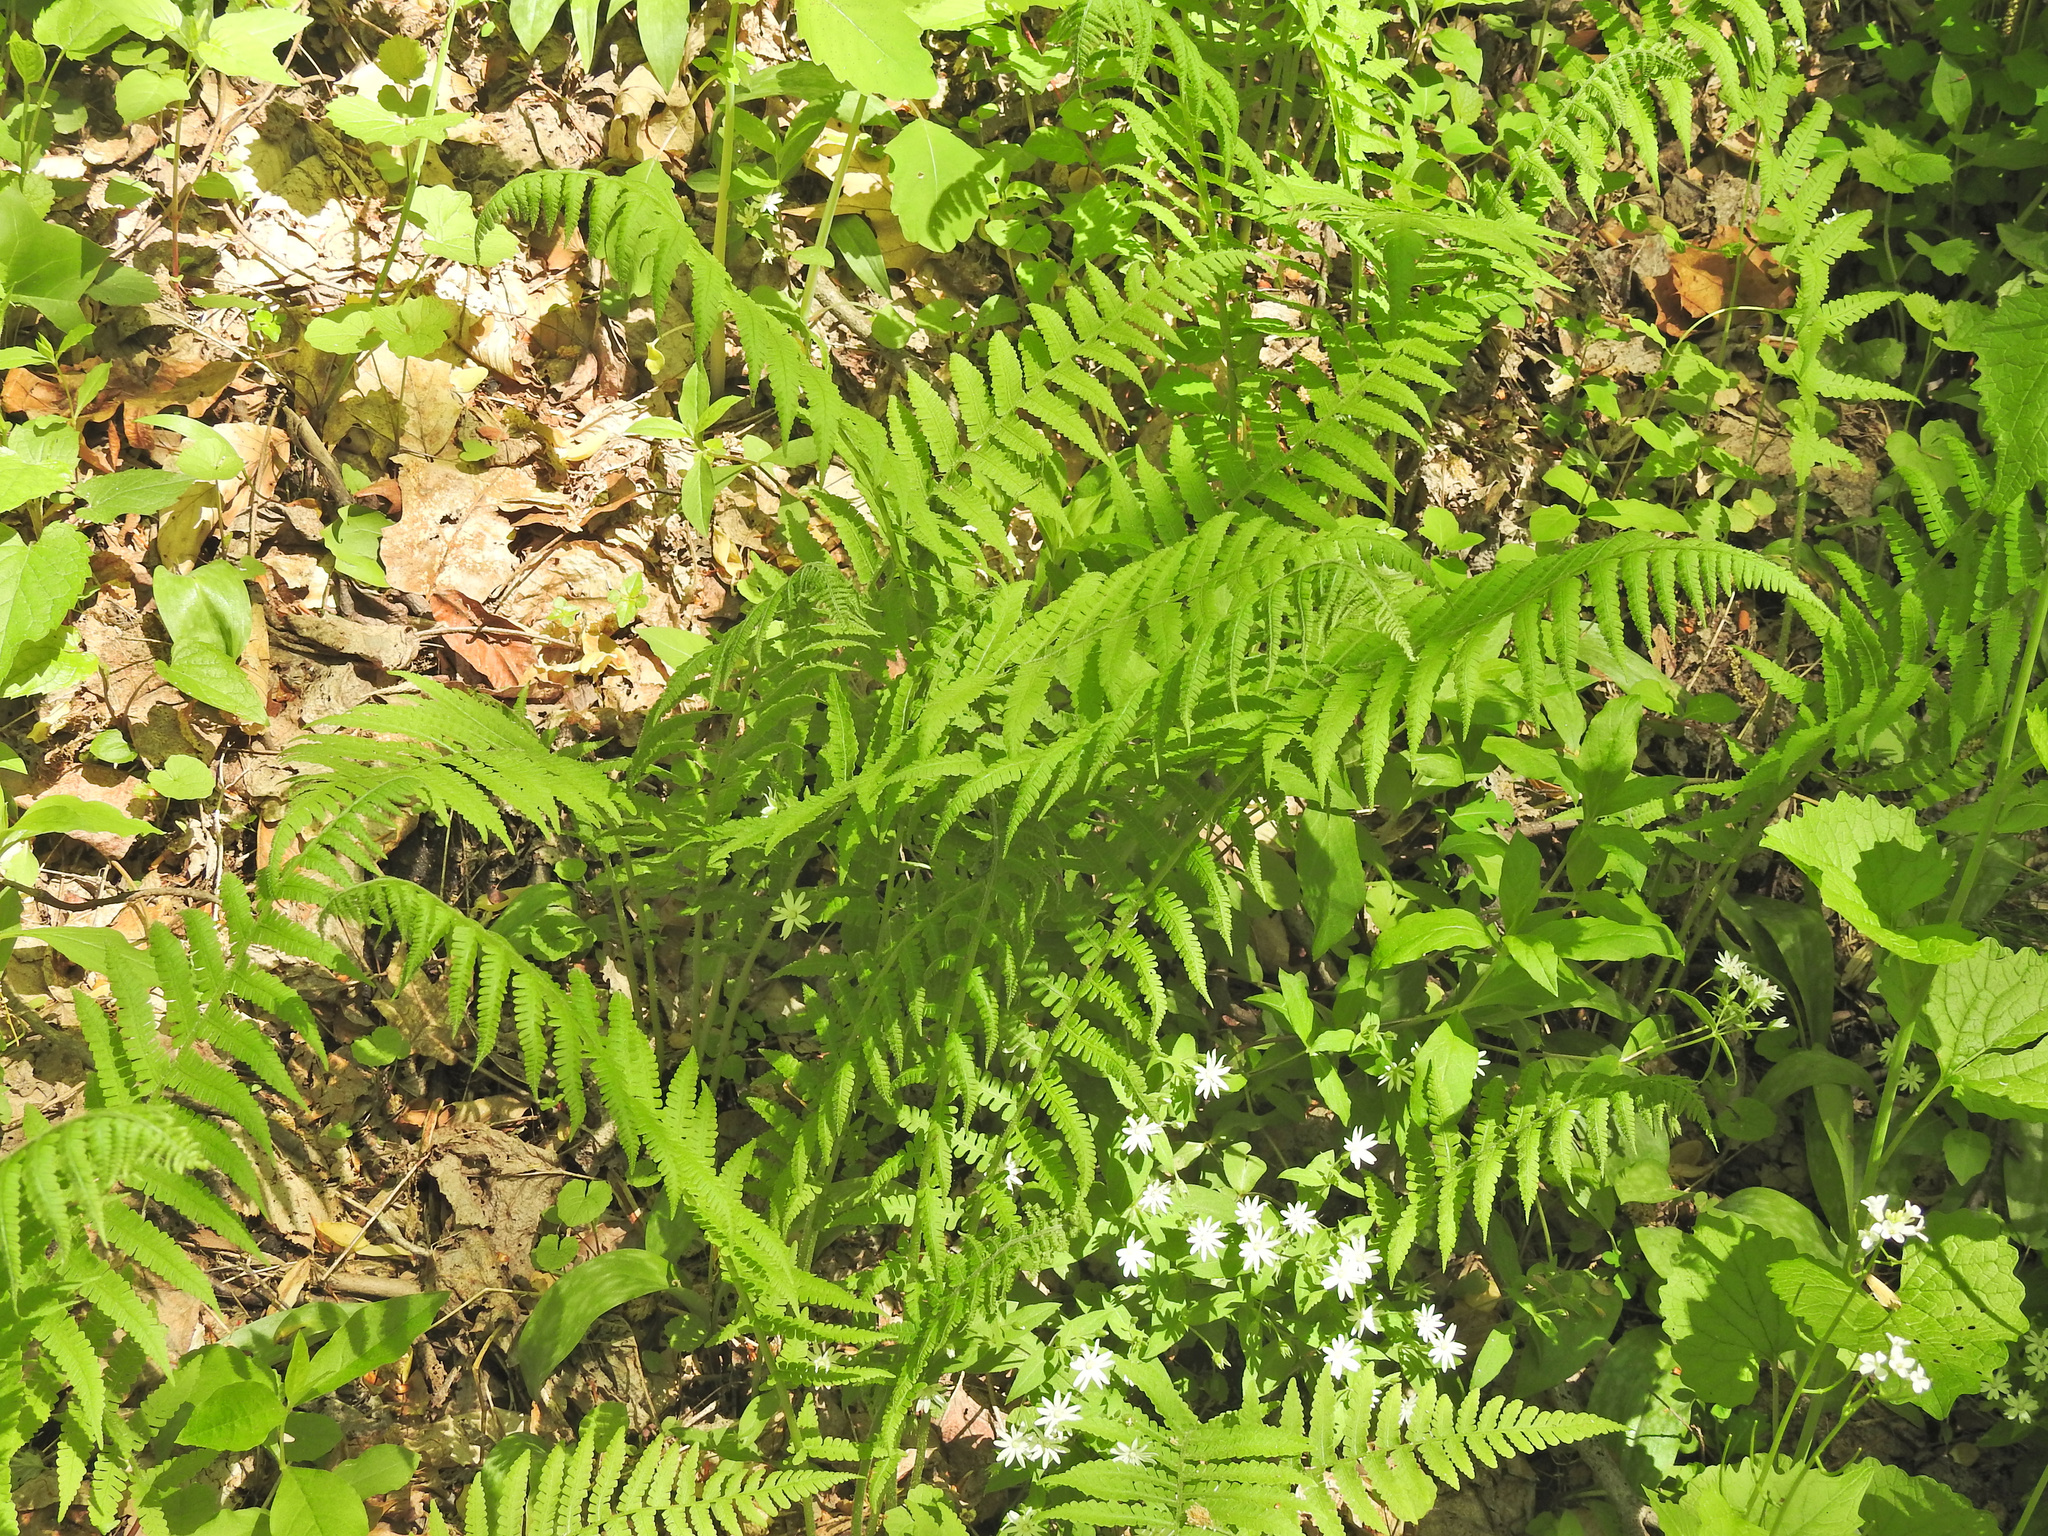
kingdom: Plantae
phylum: Tracheophyta
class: Polypodiopsida
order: Polypodiales
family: Athyriaceae
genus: Deparia
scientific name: Deparia acrostichoides
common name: Silver false spleenwort
